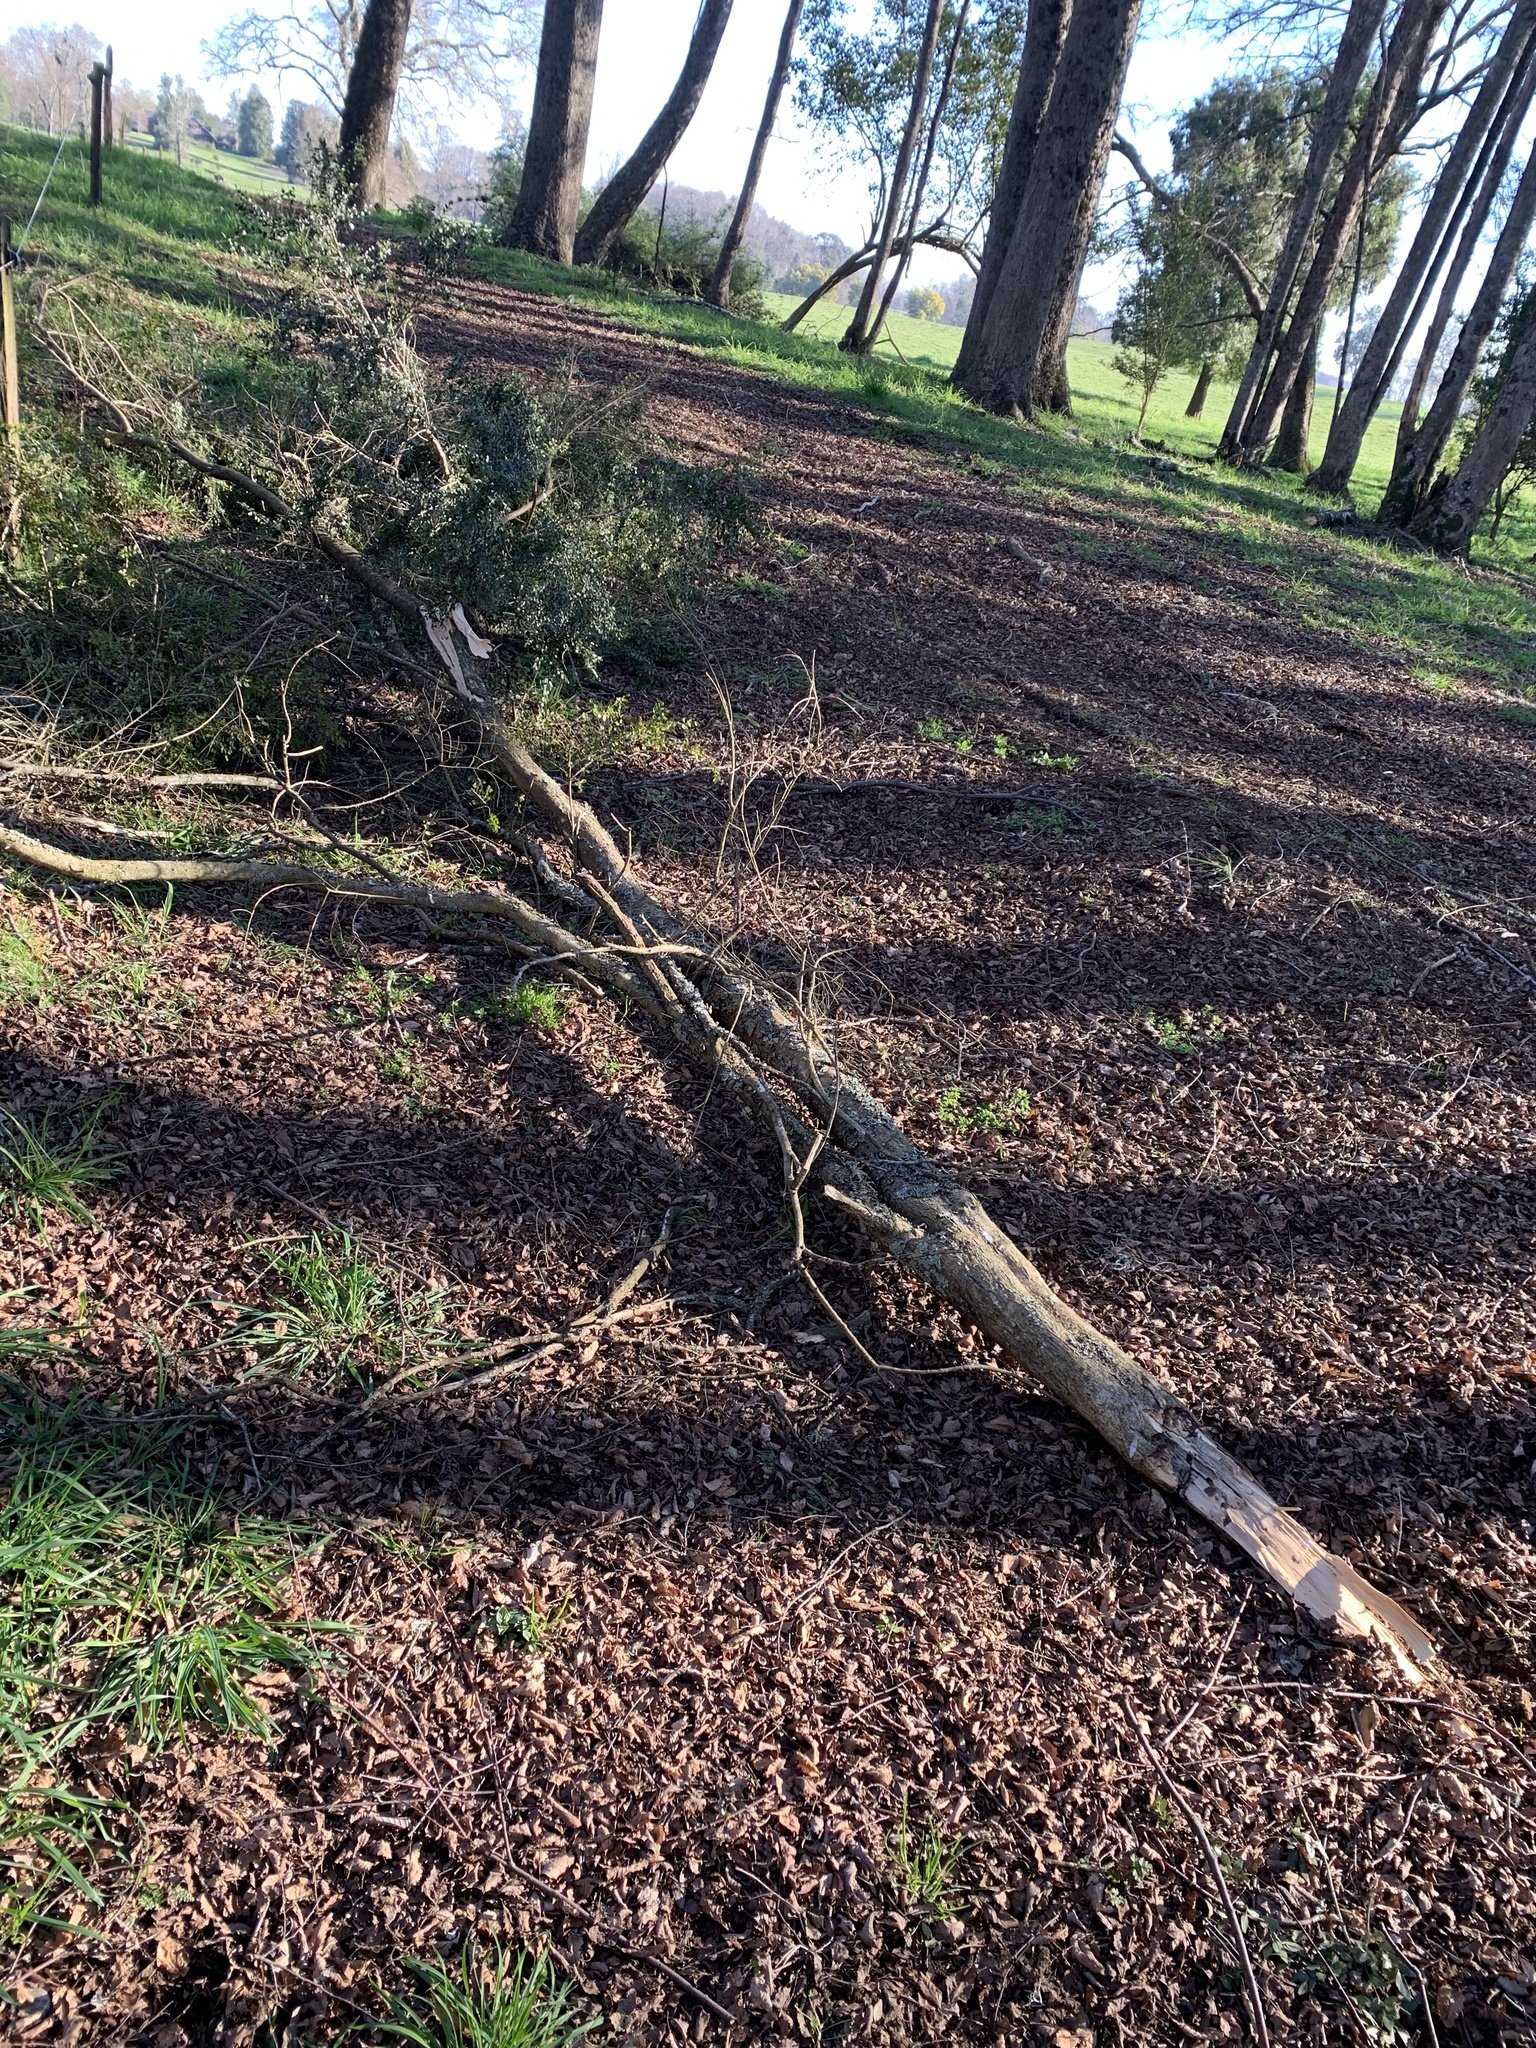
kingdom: Plantae
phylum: Tracheophyta
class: Magnoliopsida
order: Malpighiales
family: Salicaceae
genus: Azara
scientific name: Azara microphylla
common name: Box-leaf azara
